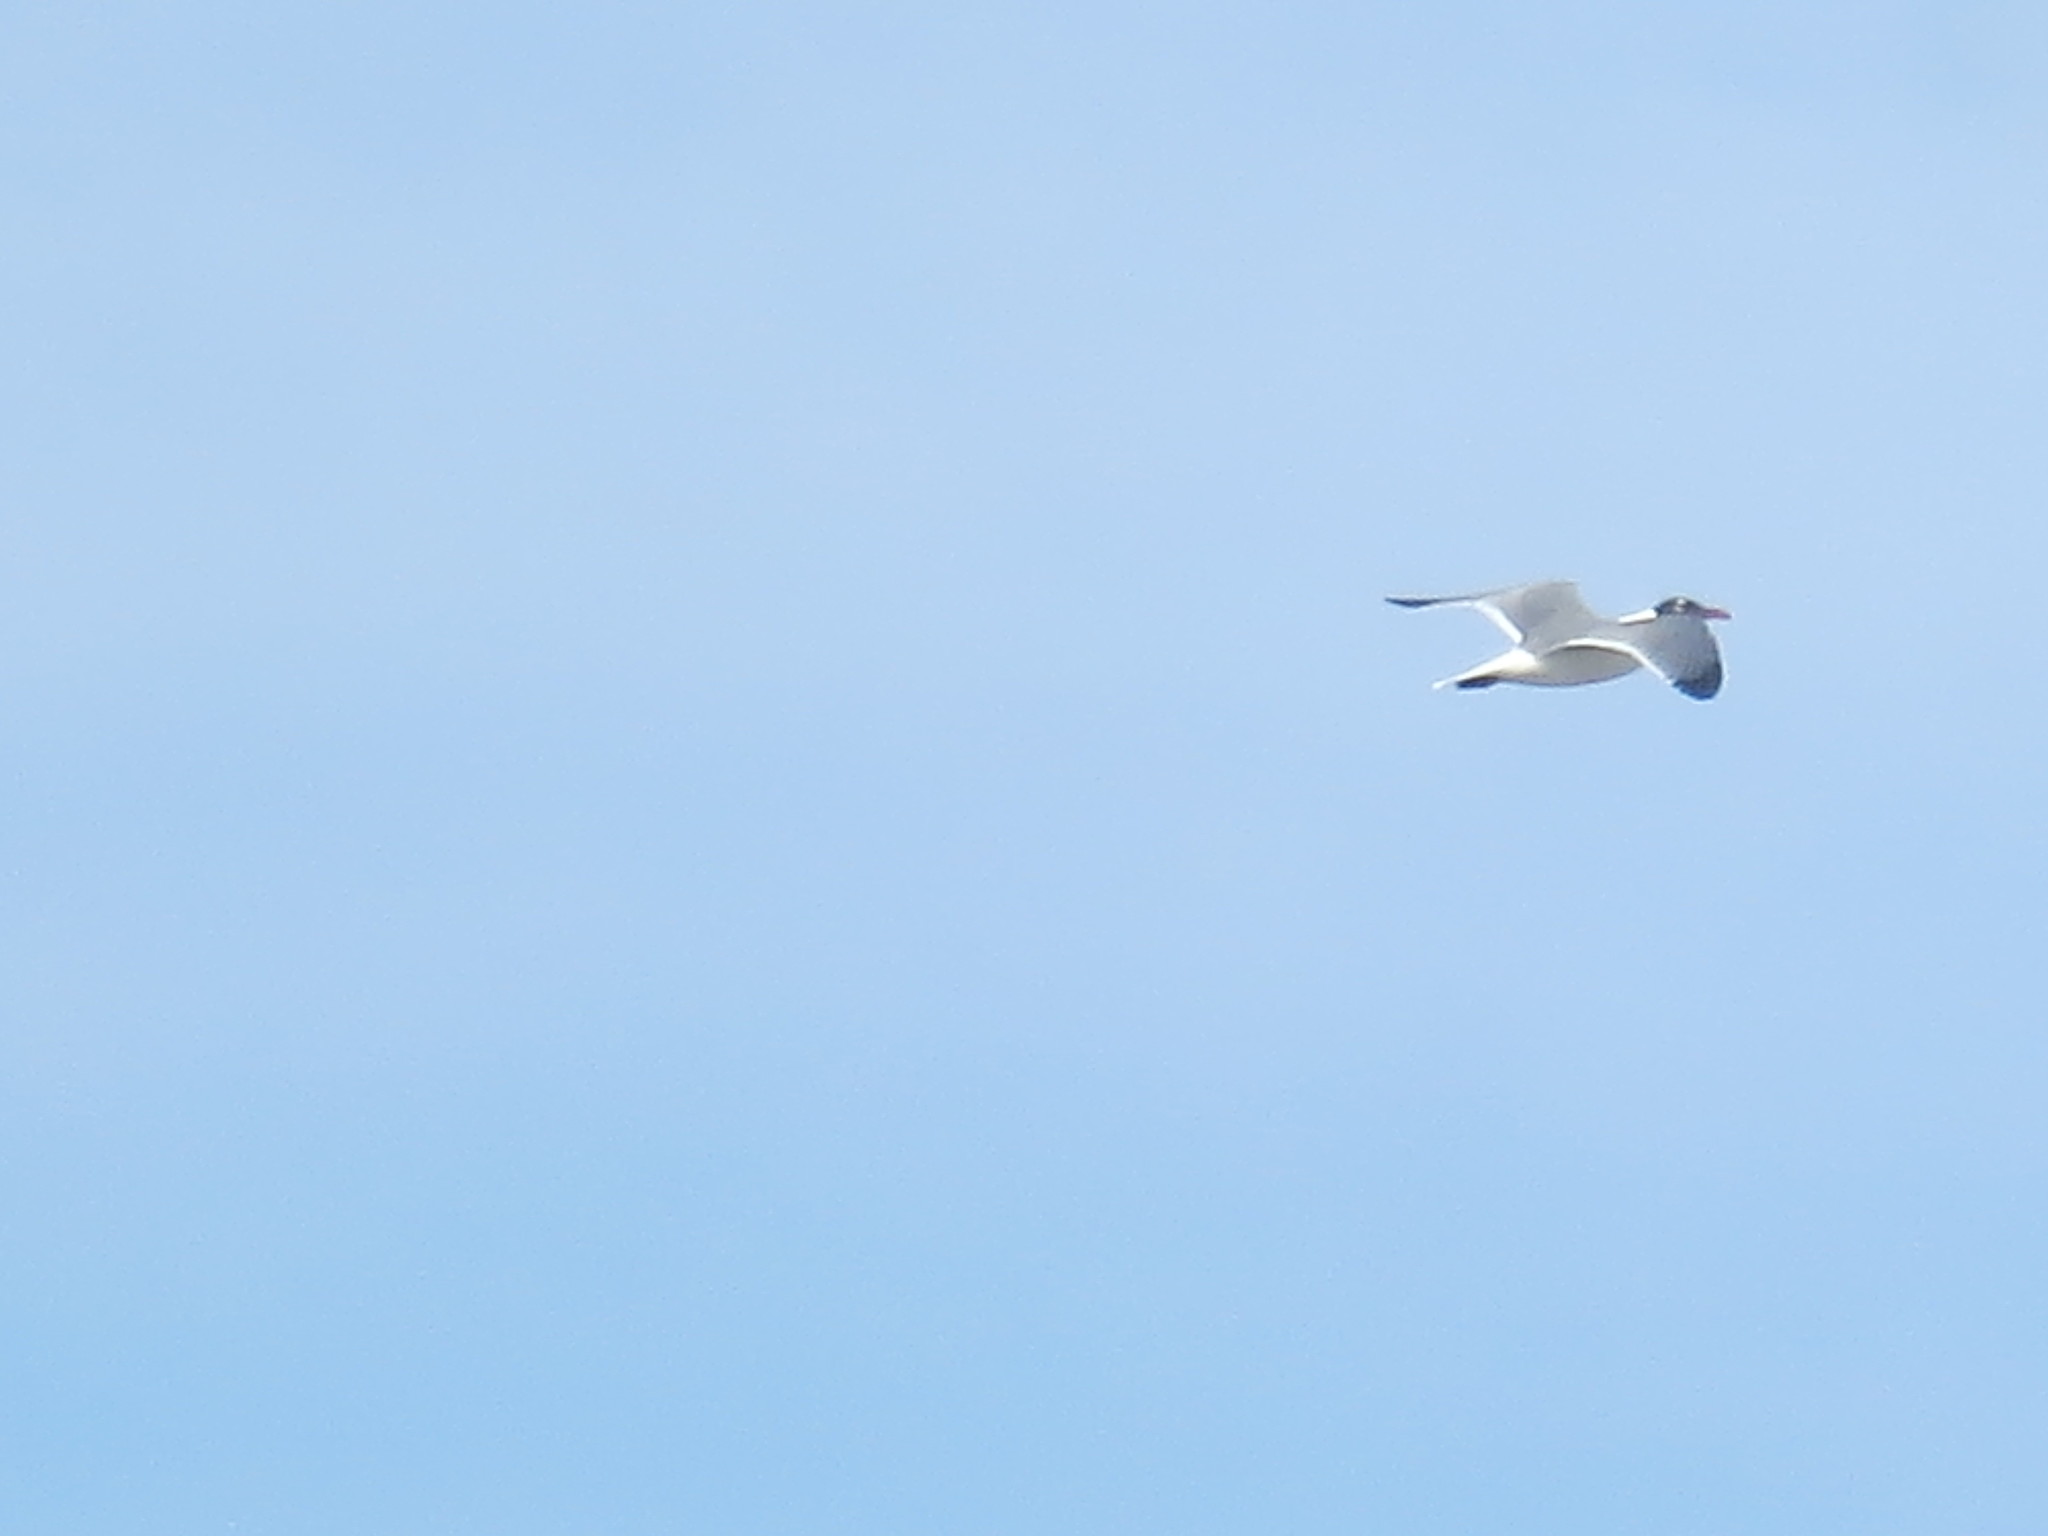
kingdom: Animalia
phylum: Chordata
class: Aves
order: Charadriiformes
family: Laridae
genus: Leucophaeus
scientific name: Leucophaeus atricilla
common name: Laughing gull
